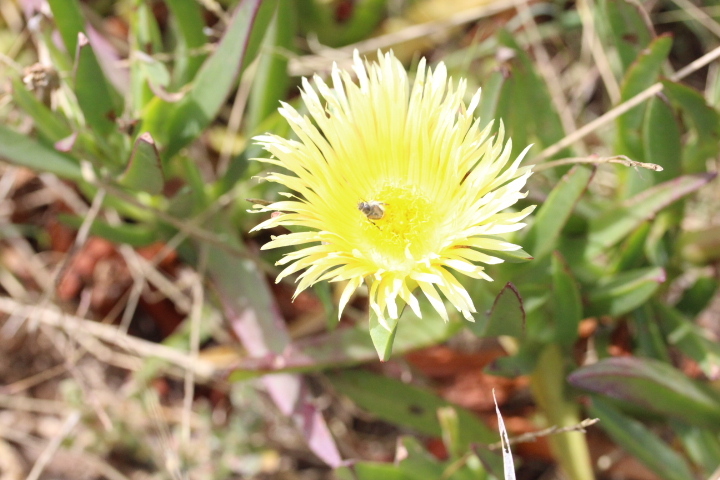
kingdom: Animalia
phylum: Arthropoda
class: Insecta
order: Hymenoptera
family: Apidae
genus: Apis
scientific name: Apis mellifera
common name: Honey bee
